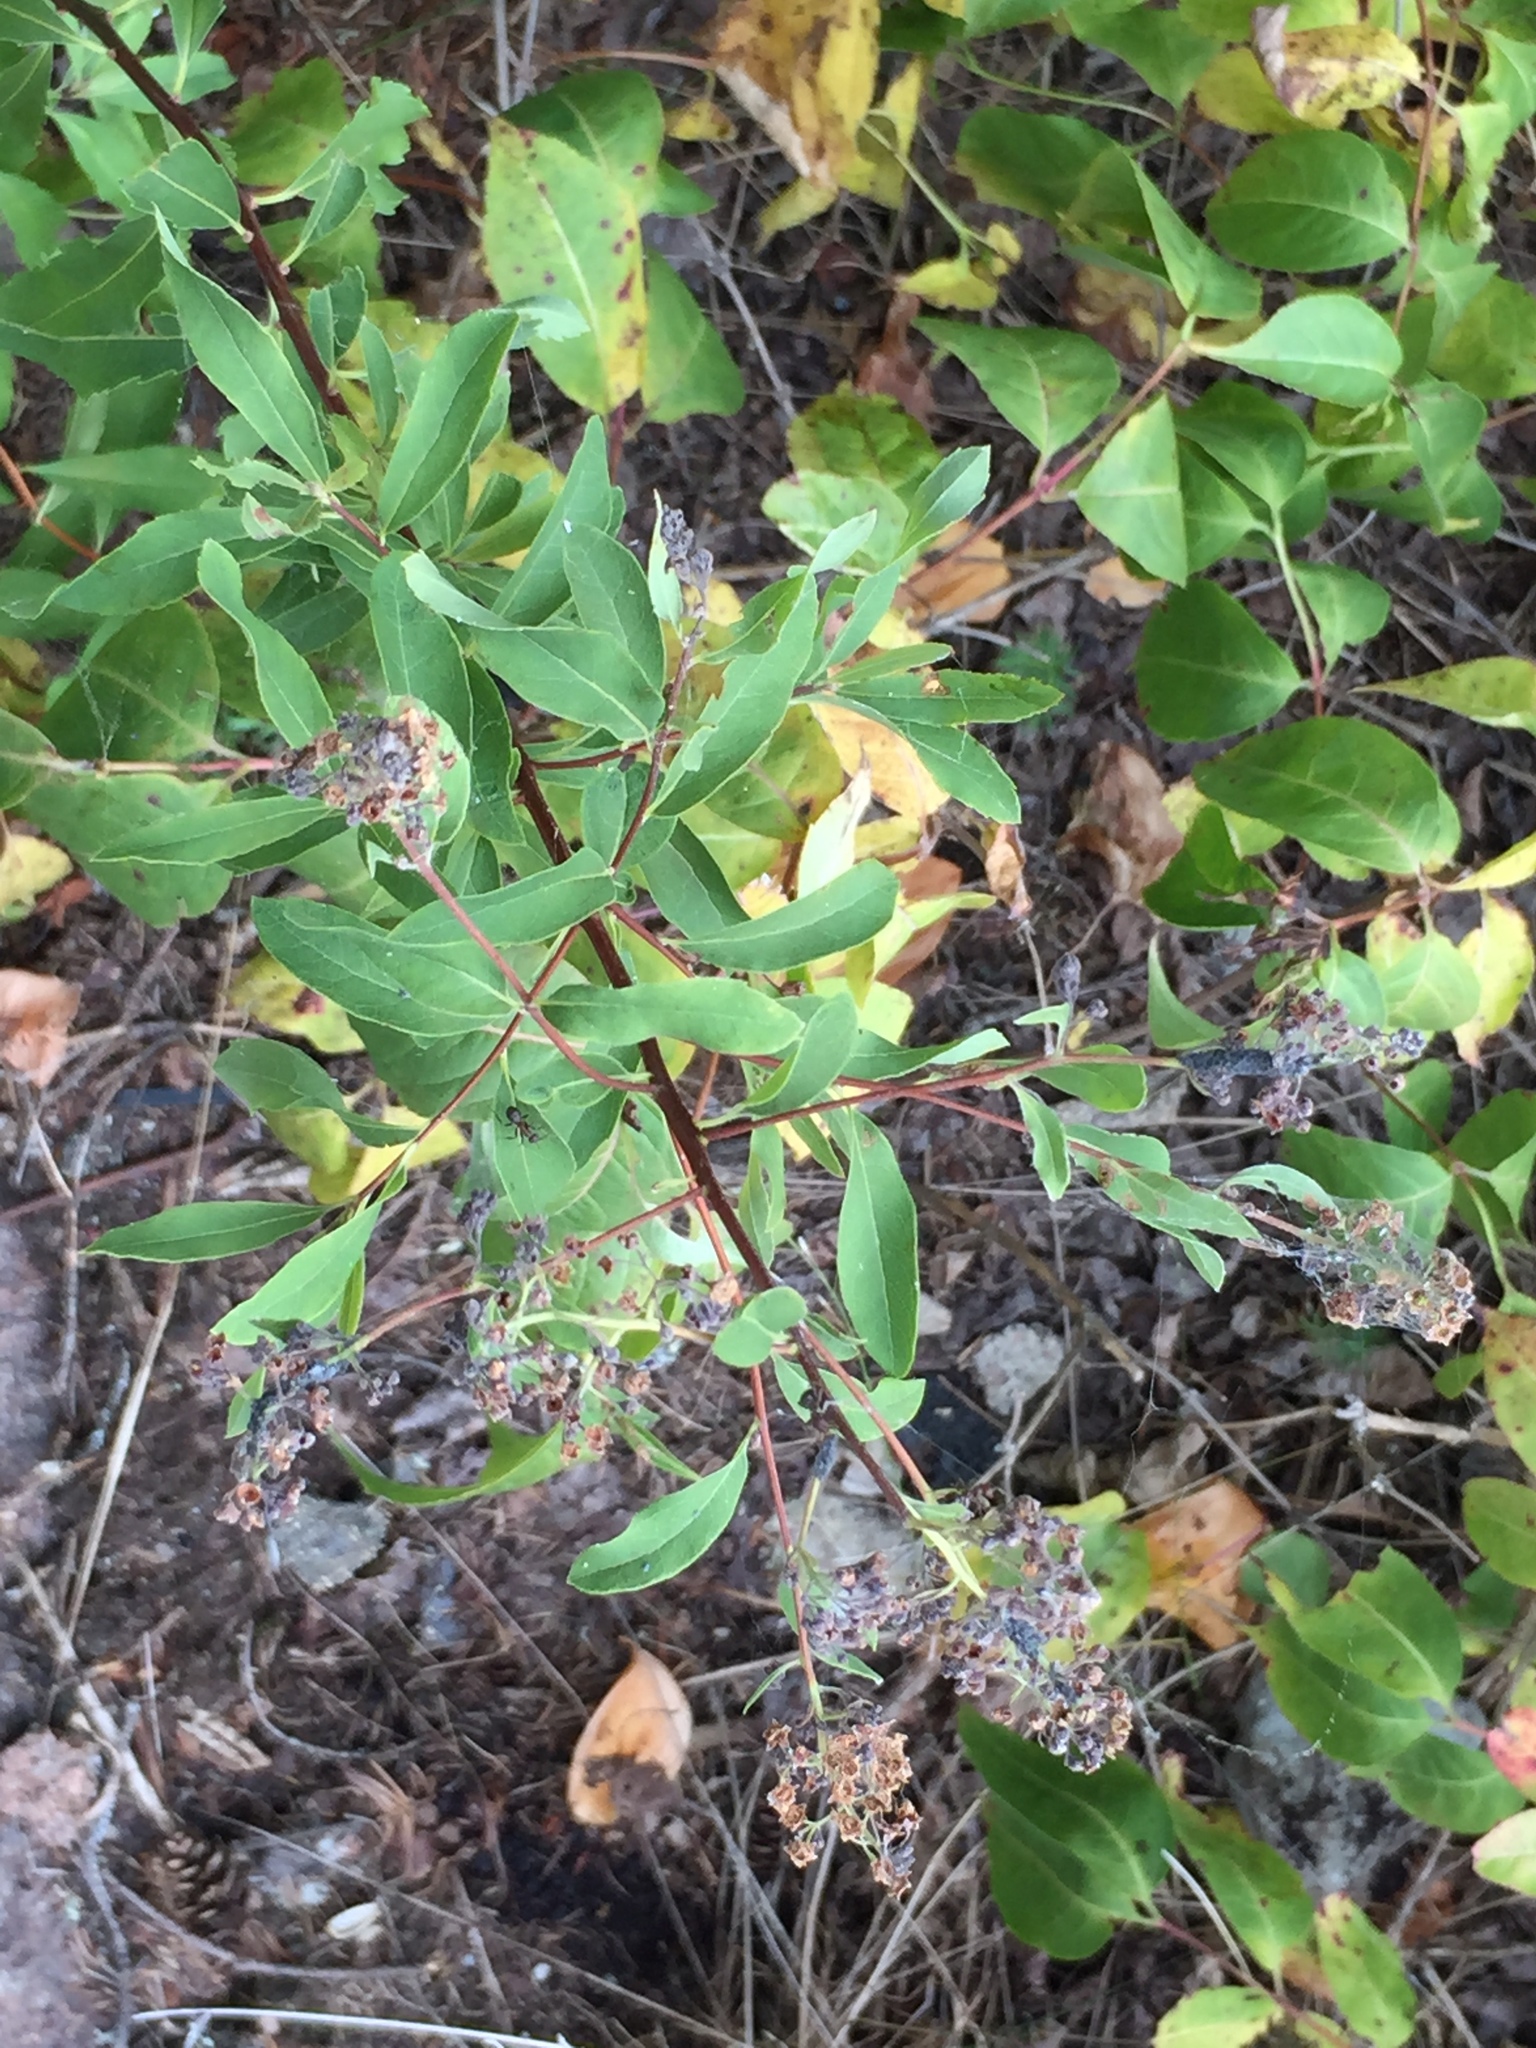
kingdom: Plantae
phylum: Tracheophyta
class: Magnoliopsida
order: Rosales
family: Rosaceae
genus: Spiraea
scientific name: Spiraea alba
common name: Pale bridewort
